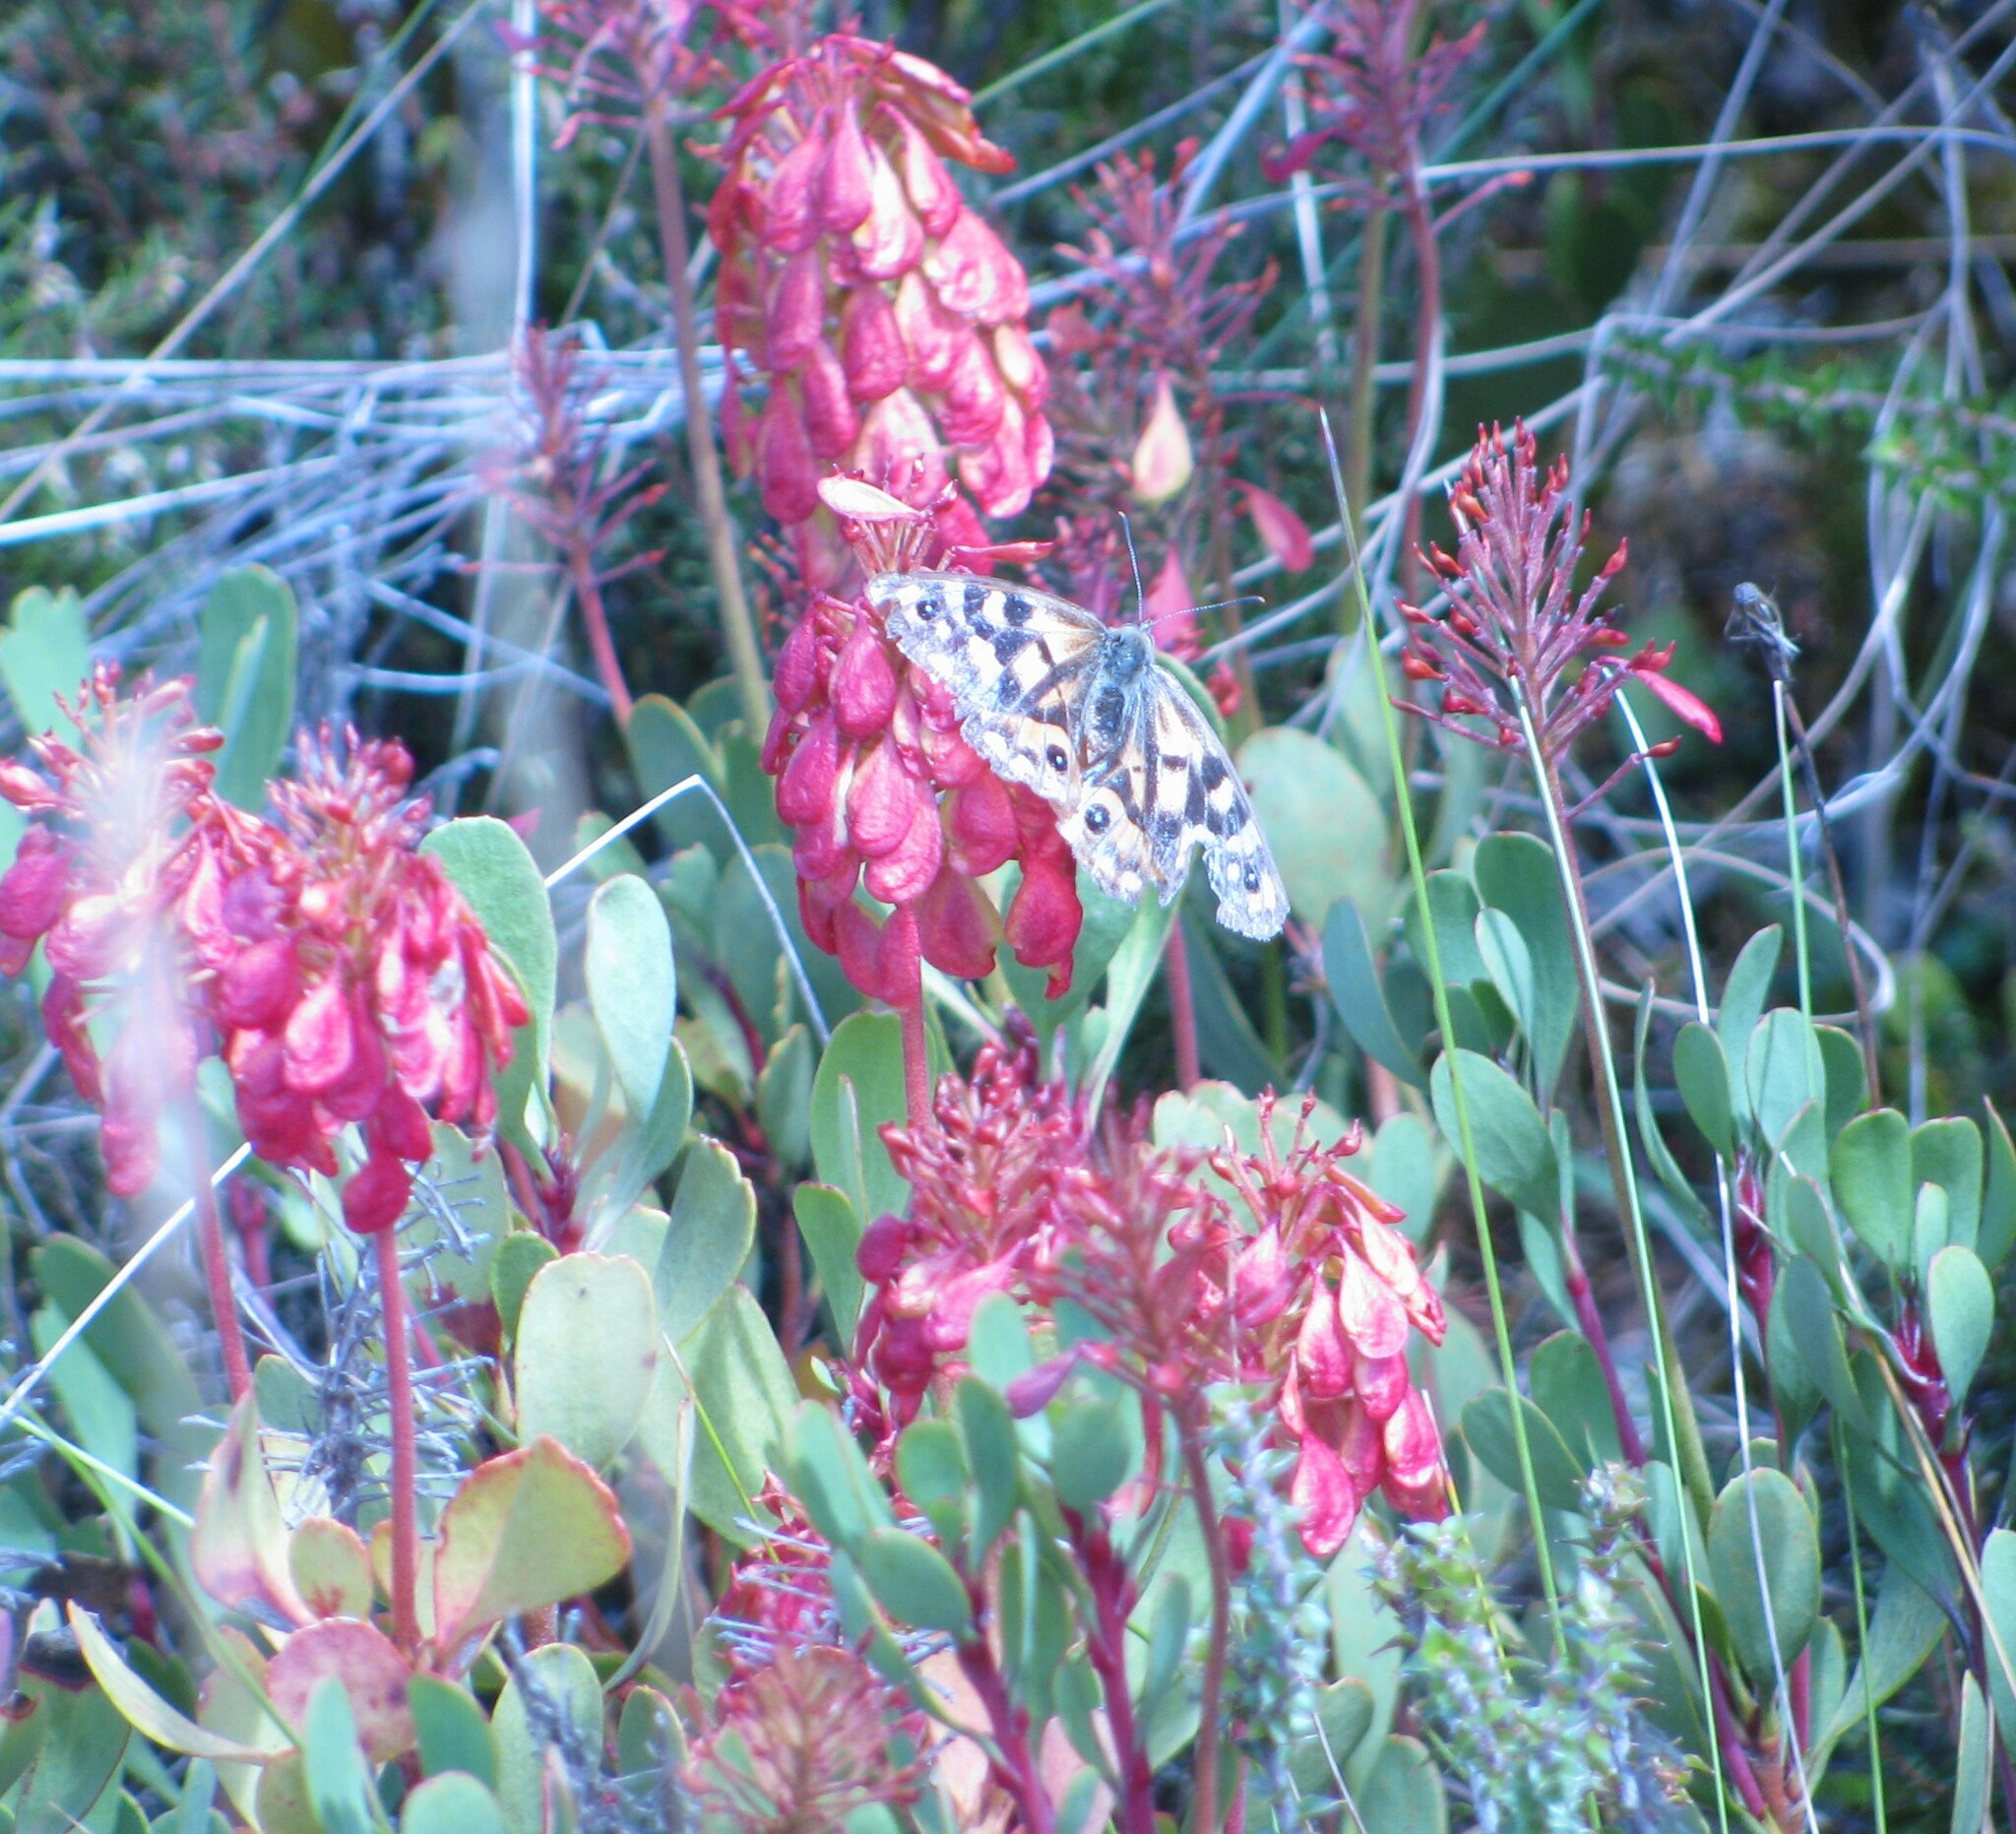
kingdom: Plantae
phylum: Tracheophyta
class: Magnoliopsida
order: Proteales
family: Proteaceae
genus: Bellendena
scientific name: Bellendena montana
